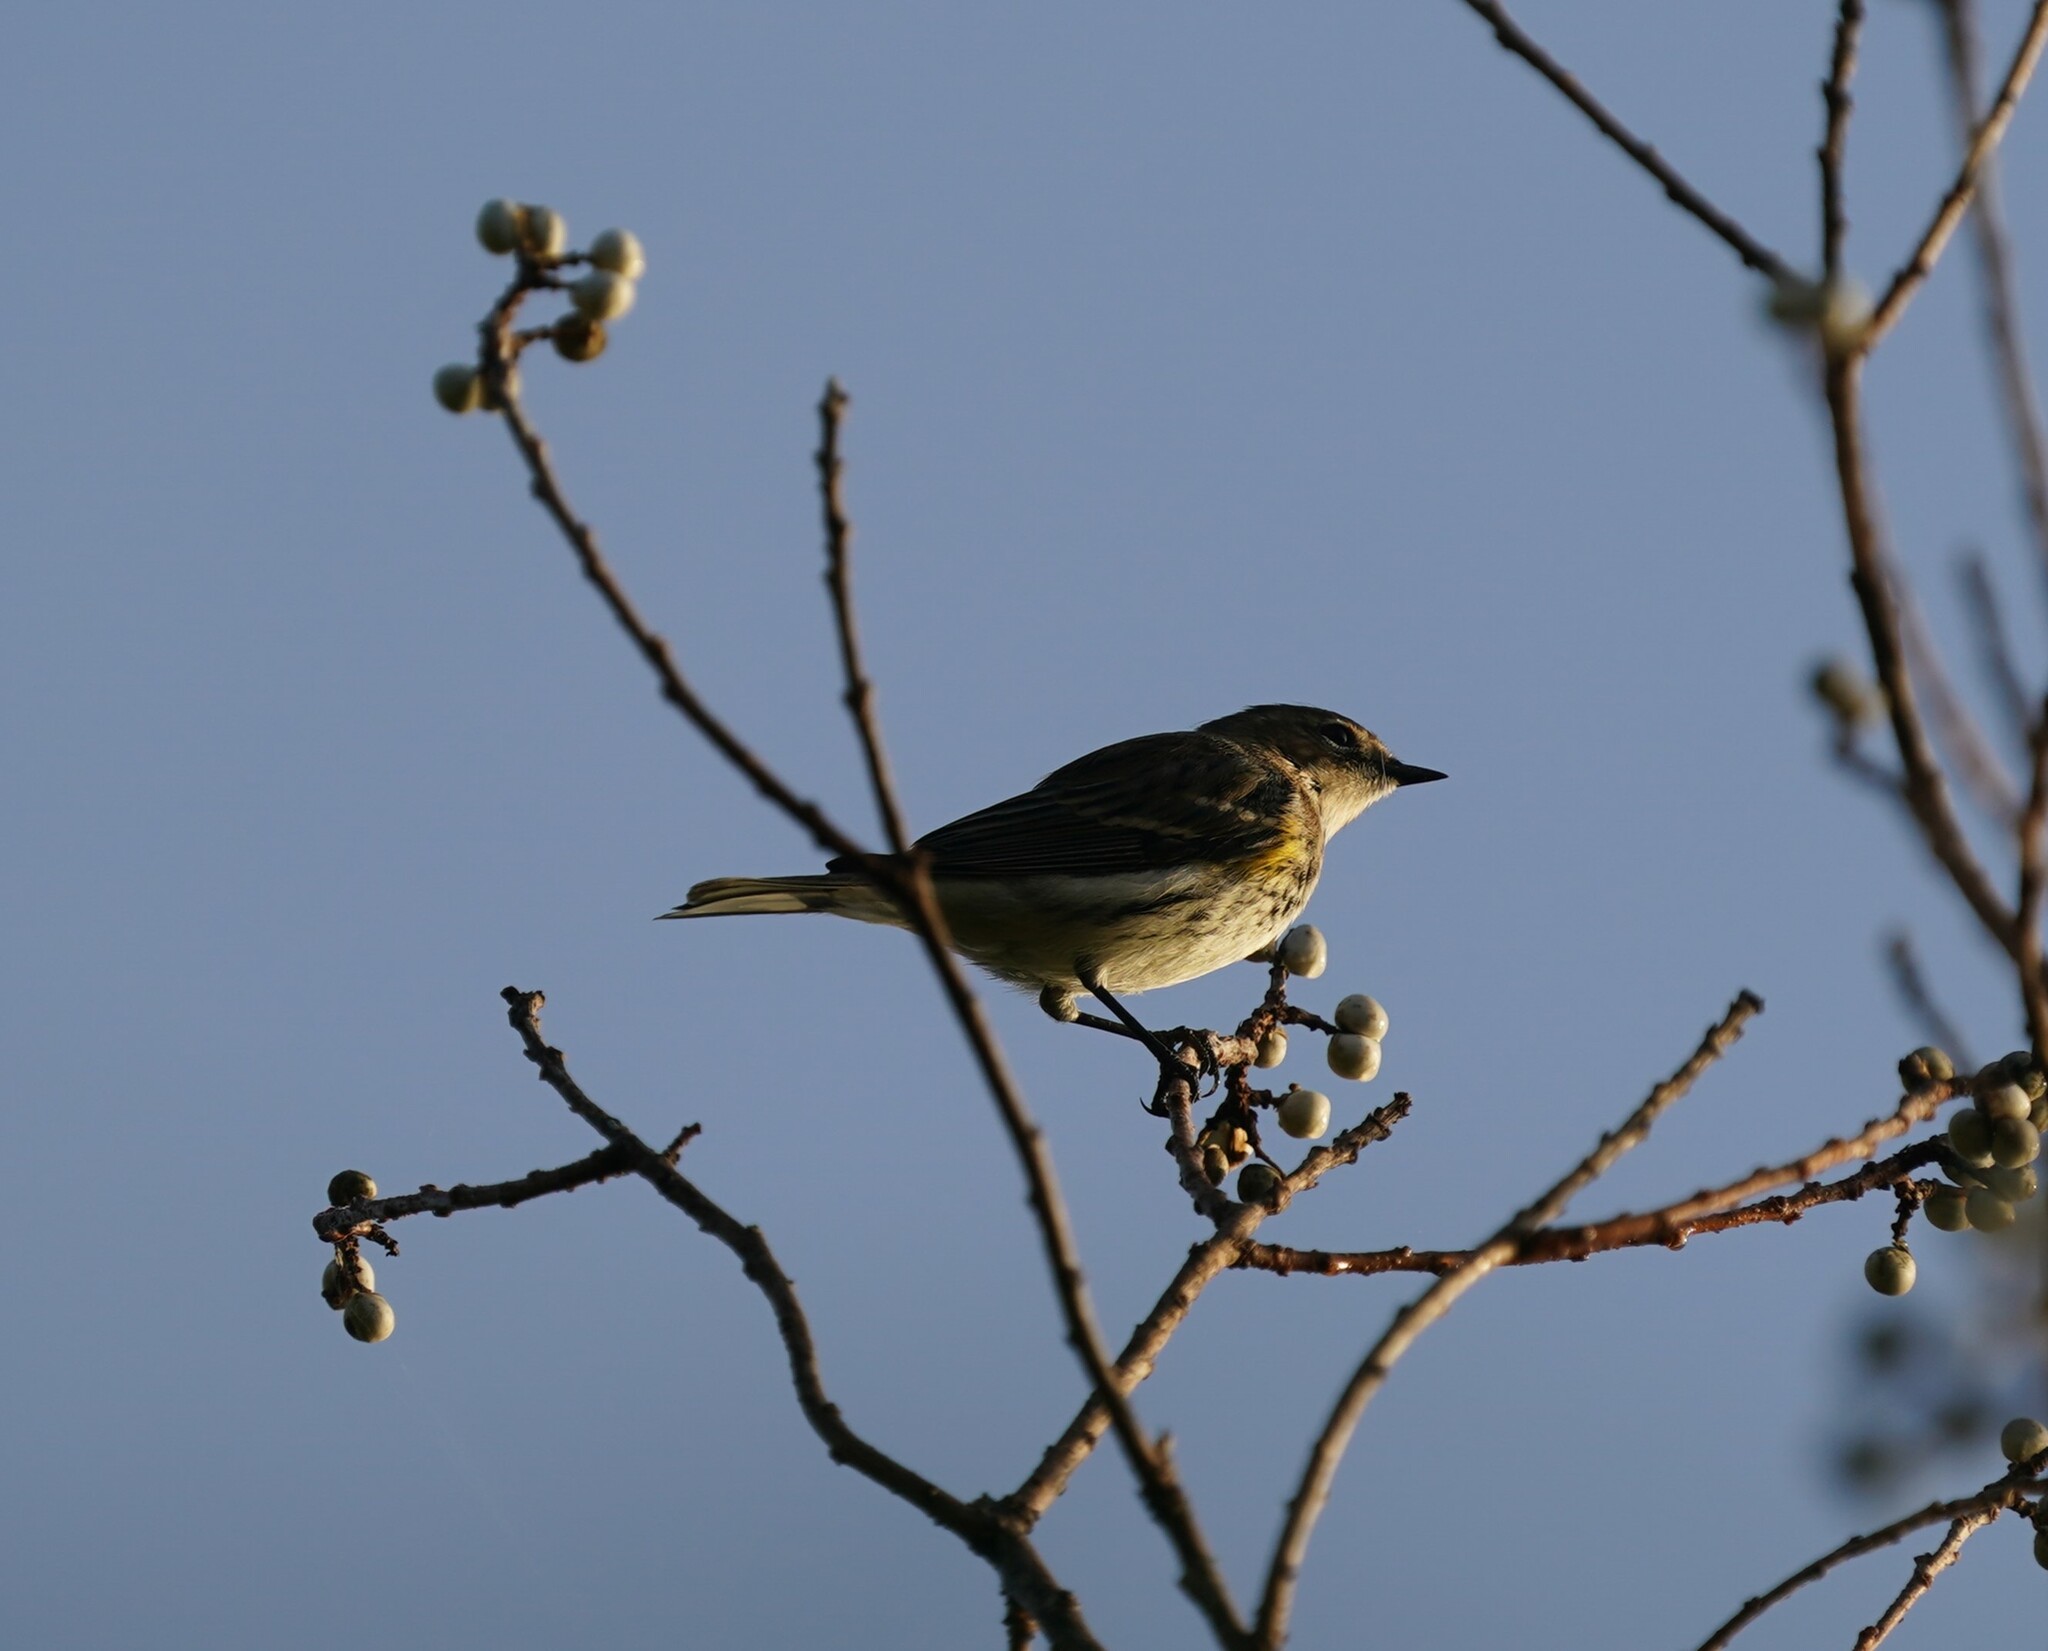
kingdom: Animalia
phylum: Chordata
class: Aves
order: Passeriformes
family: Parulidae
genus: Setophaga
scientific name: Setophaga coronata
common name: Myrtle warbler
